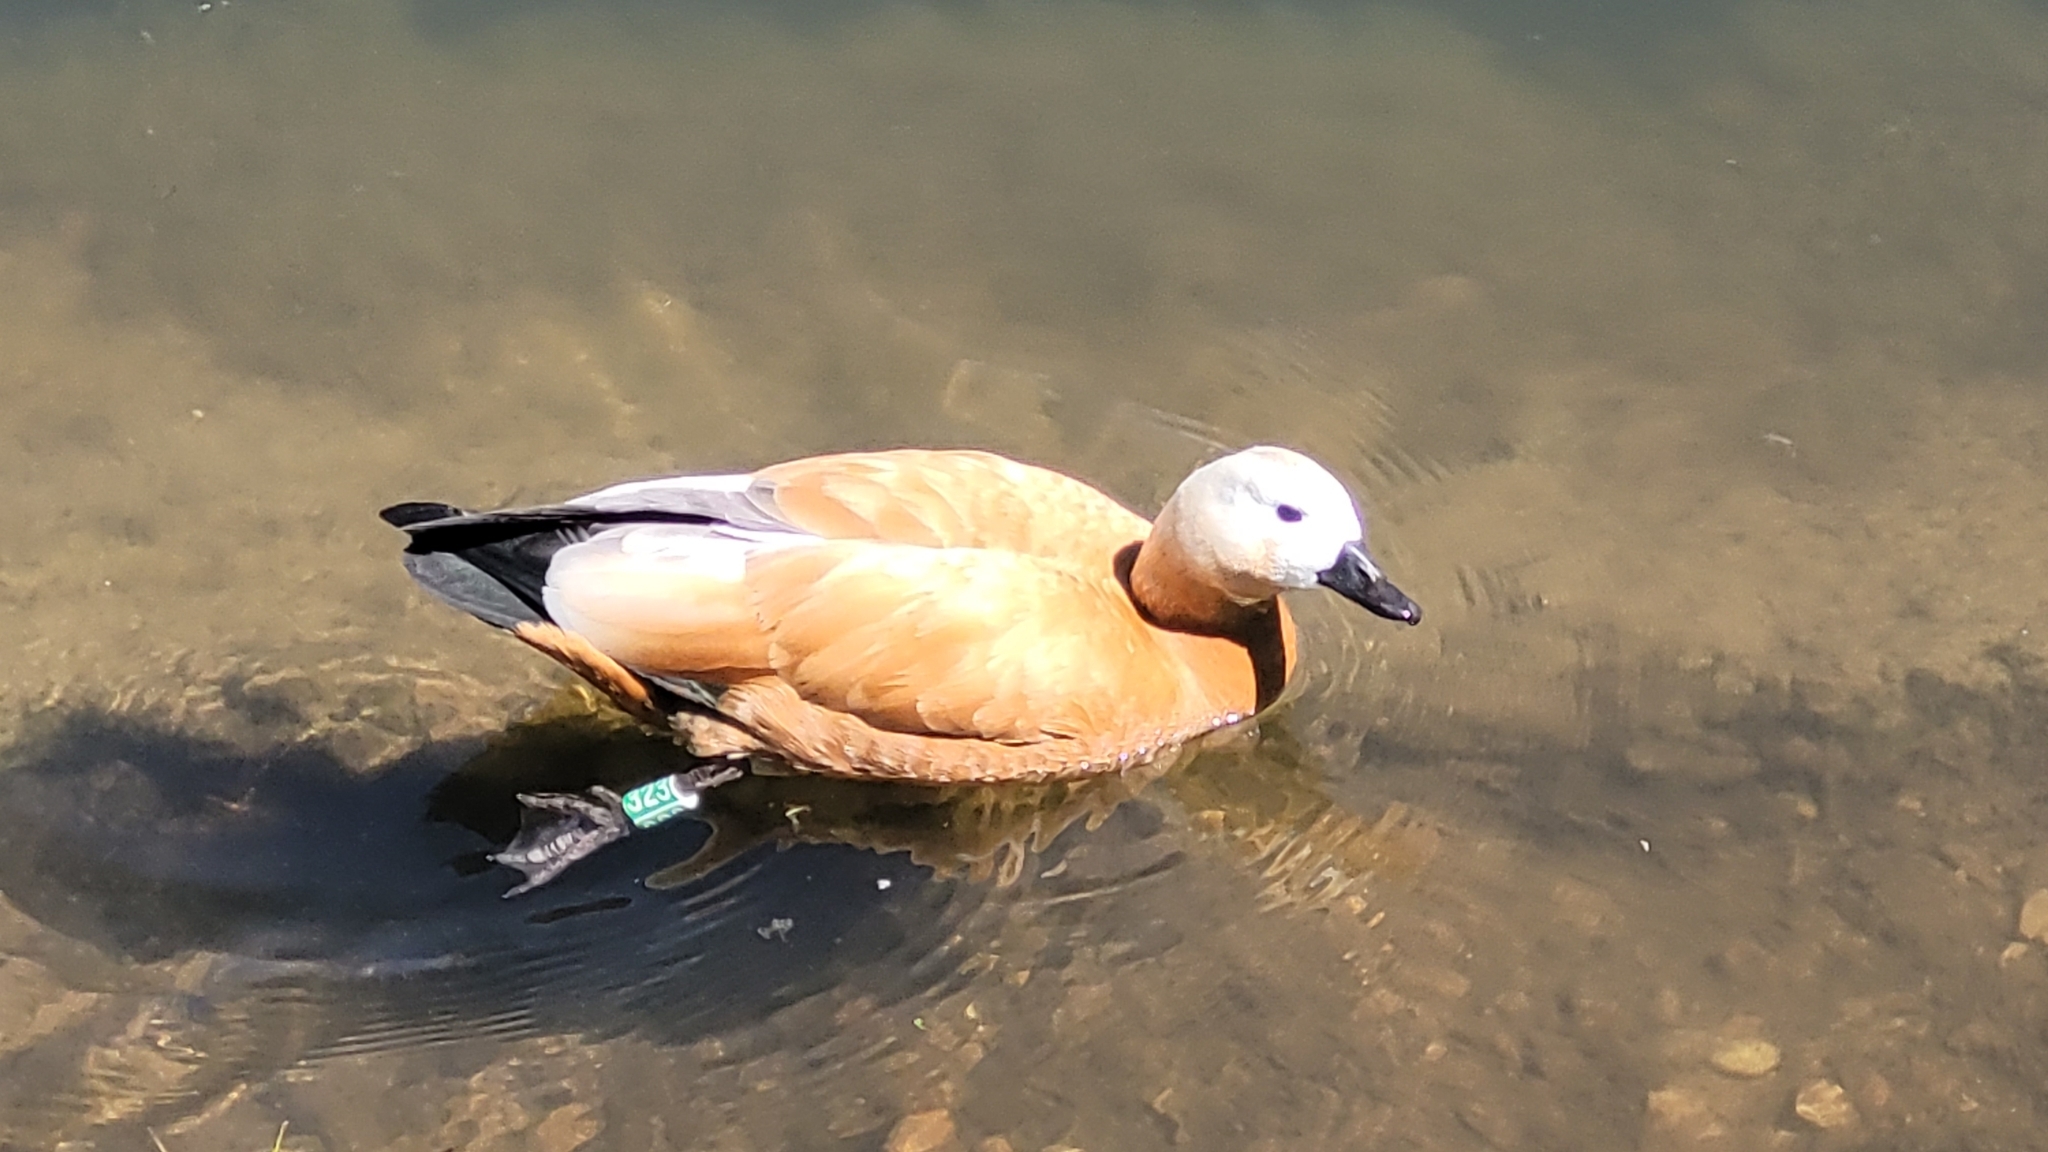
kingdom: Animalia
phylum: Chordata
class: Aves
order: Anseriformes
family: Anatidae
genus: Tadorna
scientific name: Tadorna ferruginea
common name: Ruddy shelduck
